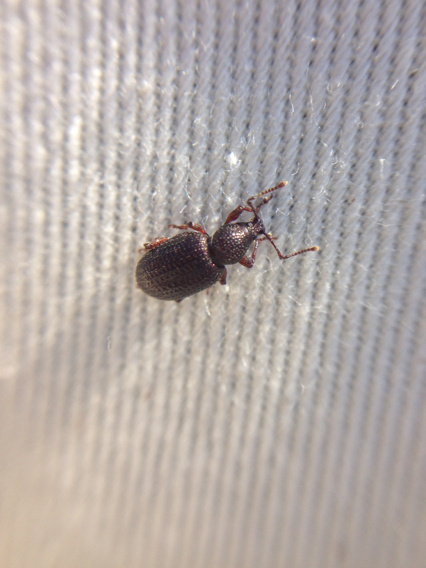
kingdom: Animalia
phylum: Arthropoda
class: Insecta
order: Coleoptera
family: Curculionidae
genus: Otiorhynchus
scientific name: Otiorhynchus cribricollis
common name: Weevil
